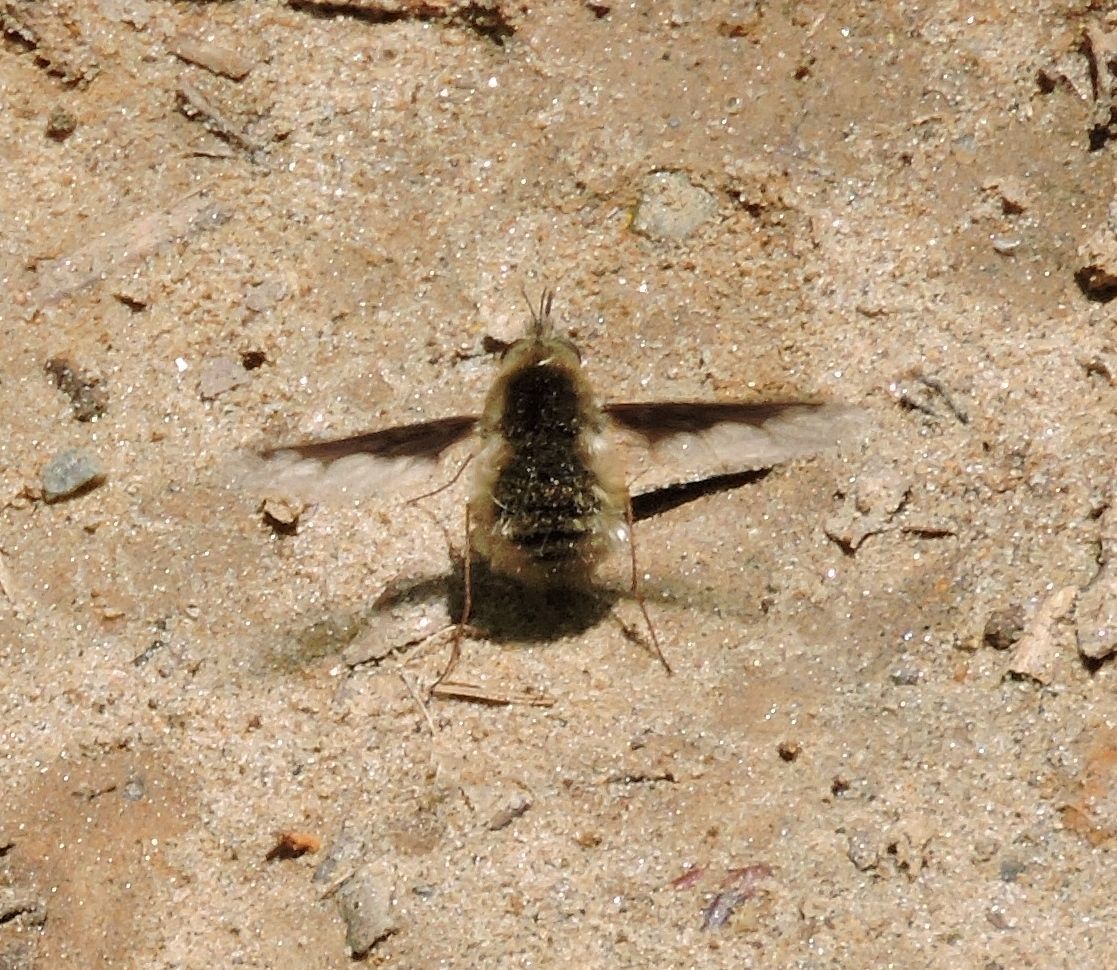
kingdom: Animalia
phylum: Arthropoda
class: Insecta
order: Diptera
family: Bombyliidae
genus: Bombylius
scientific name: Bombylius major
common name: Bee fly
